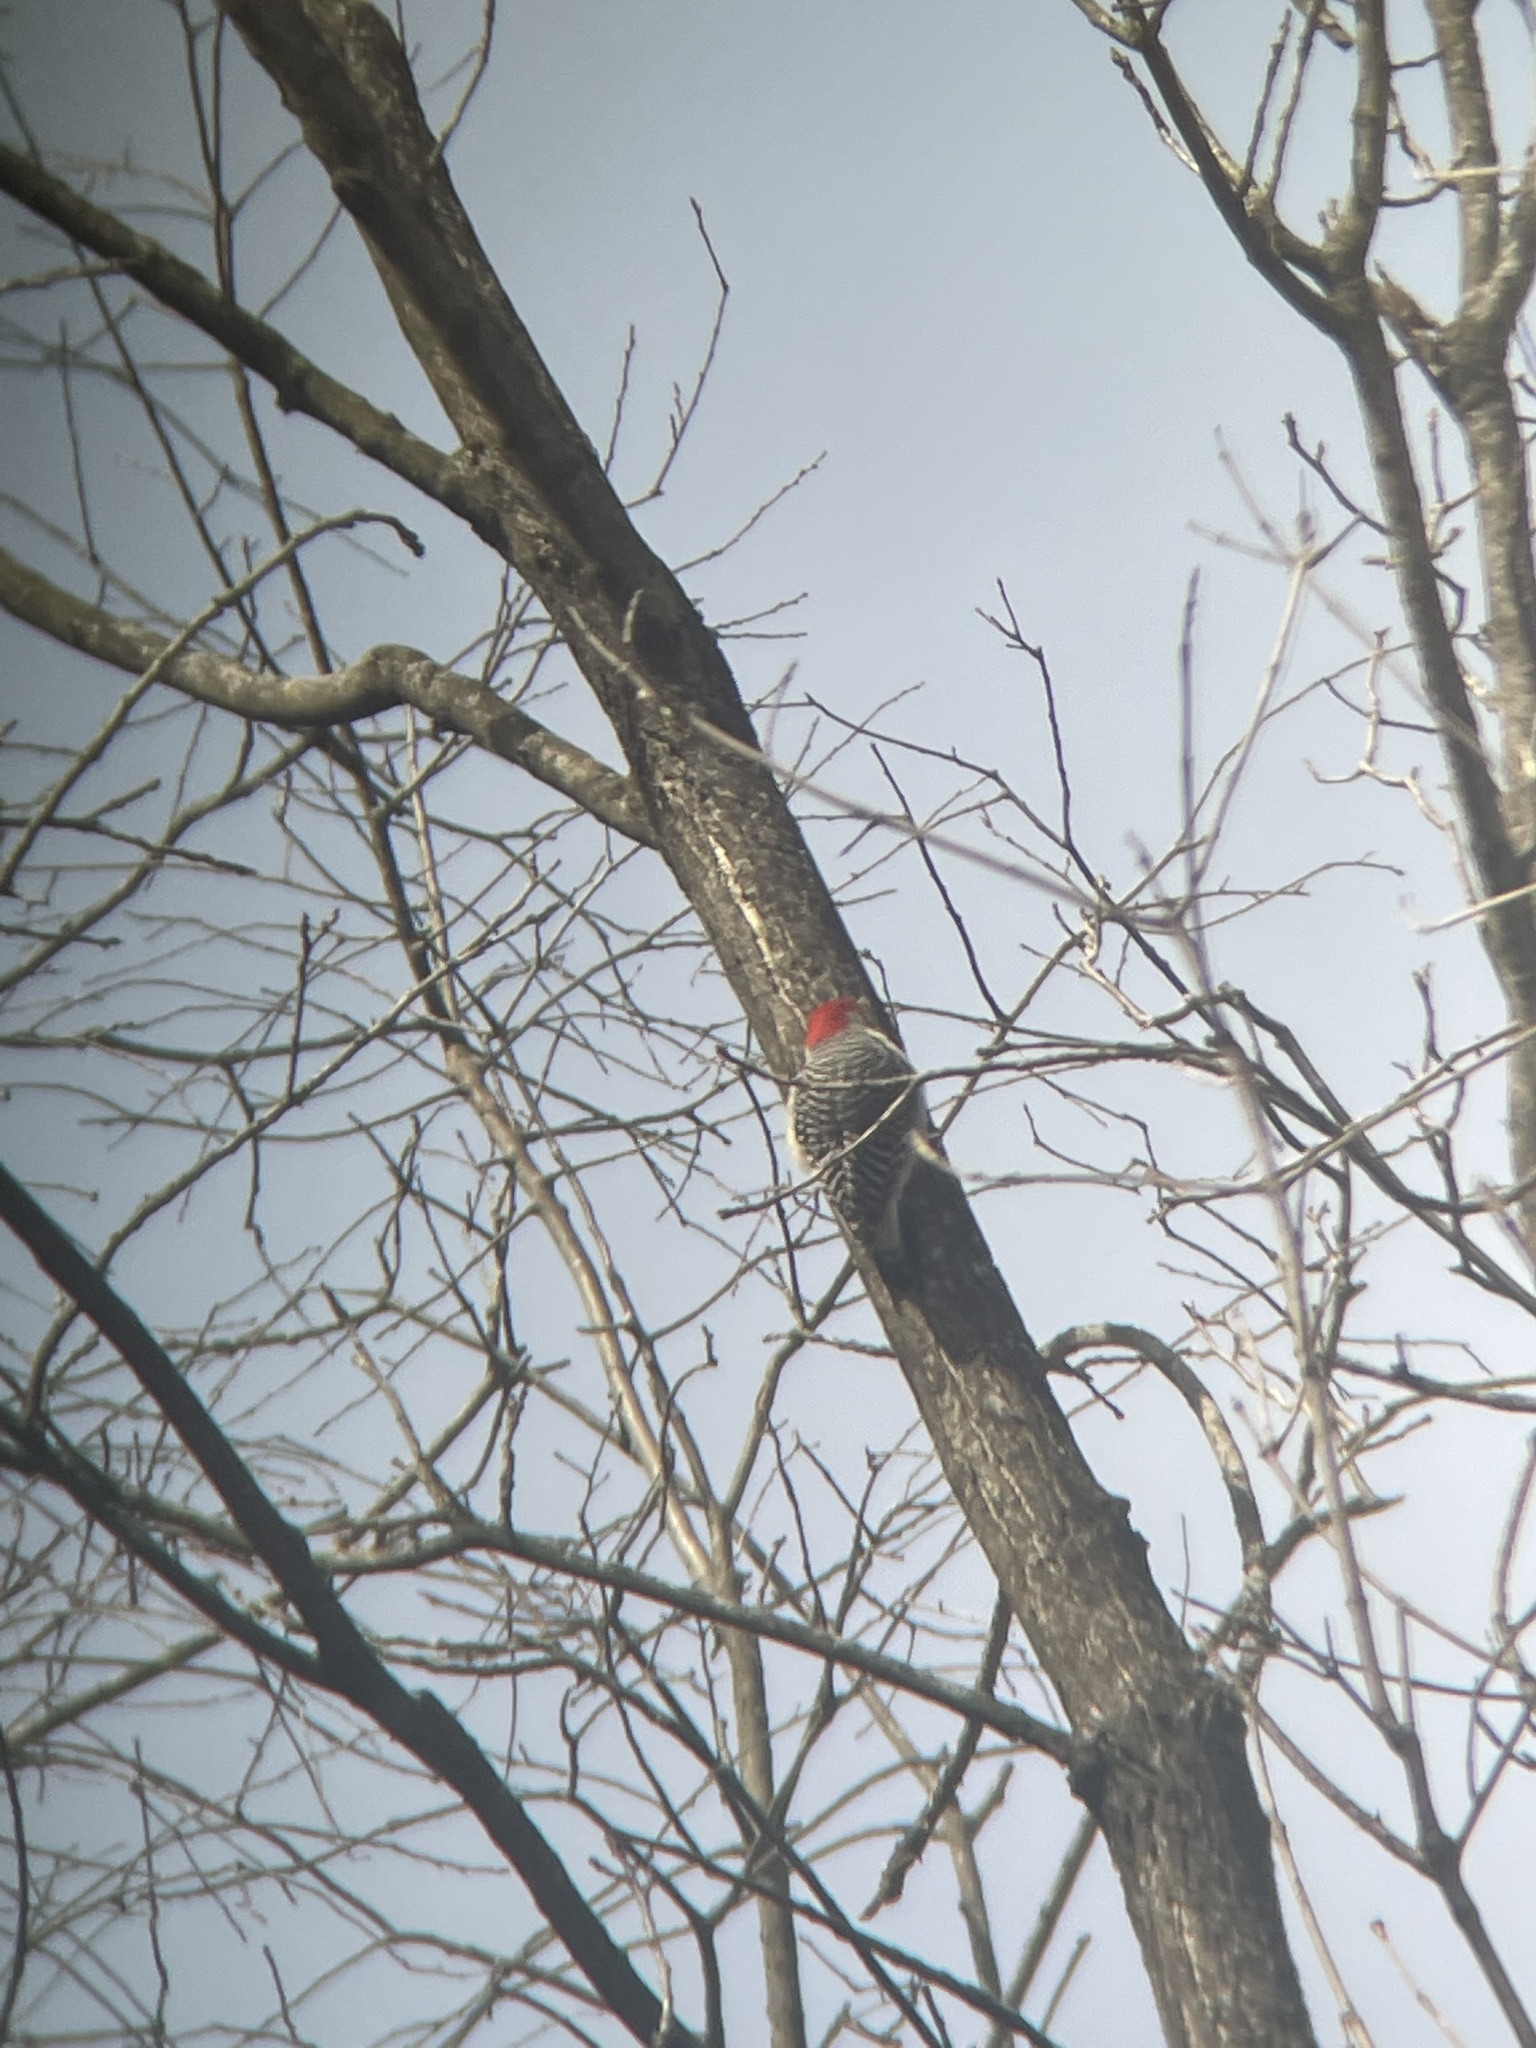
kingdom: Animalia
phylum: Chordata
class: Aves
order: Piciformes
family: Picidae
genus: Melanerpes
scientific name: Melanerpes carolinus
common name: Red-bellied woodpecker
